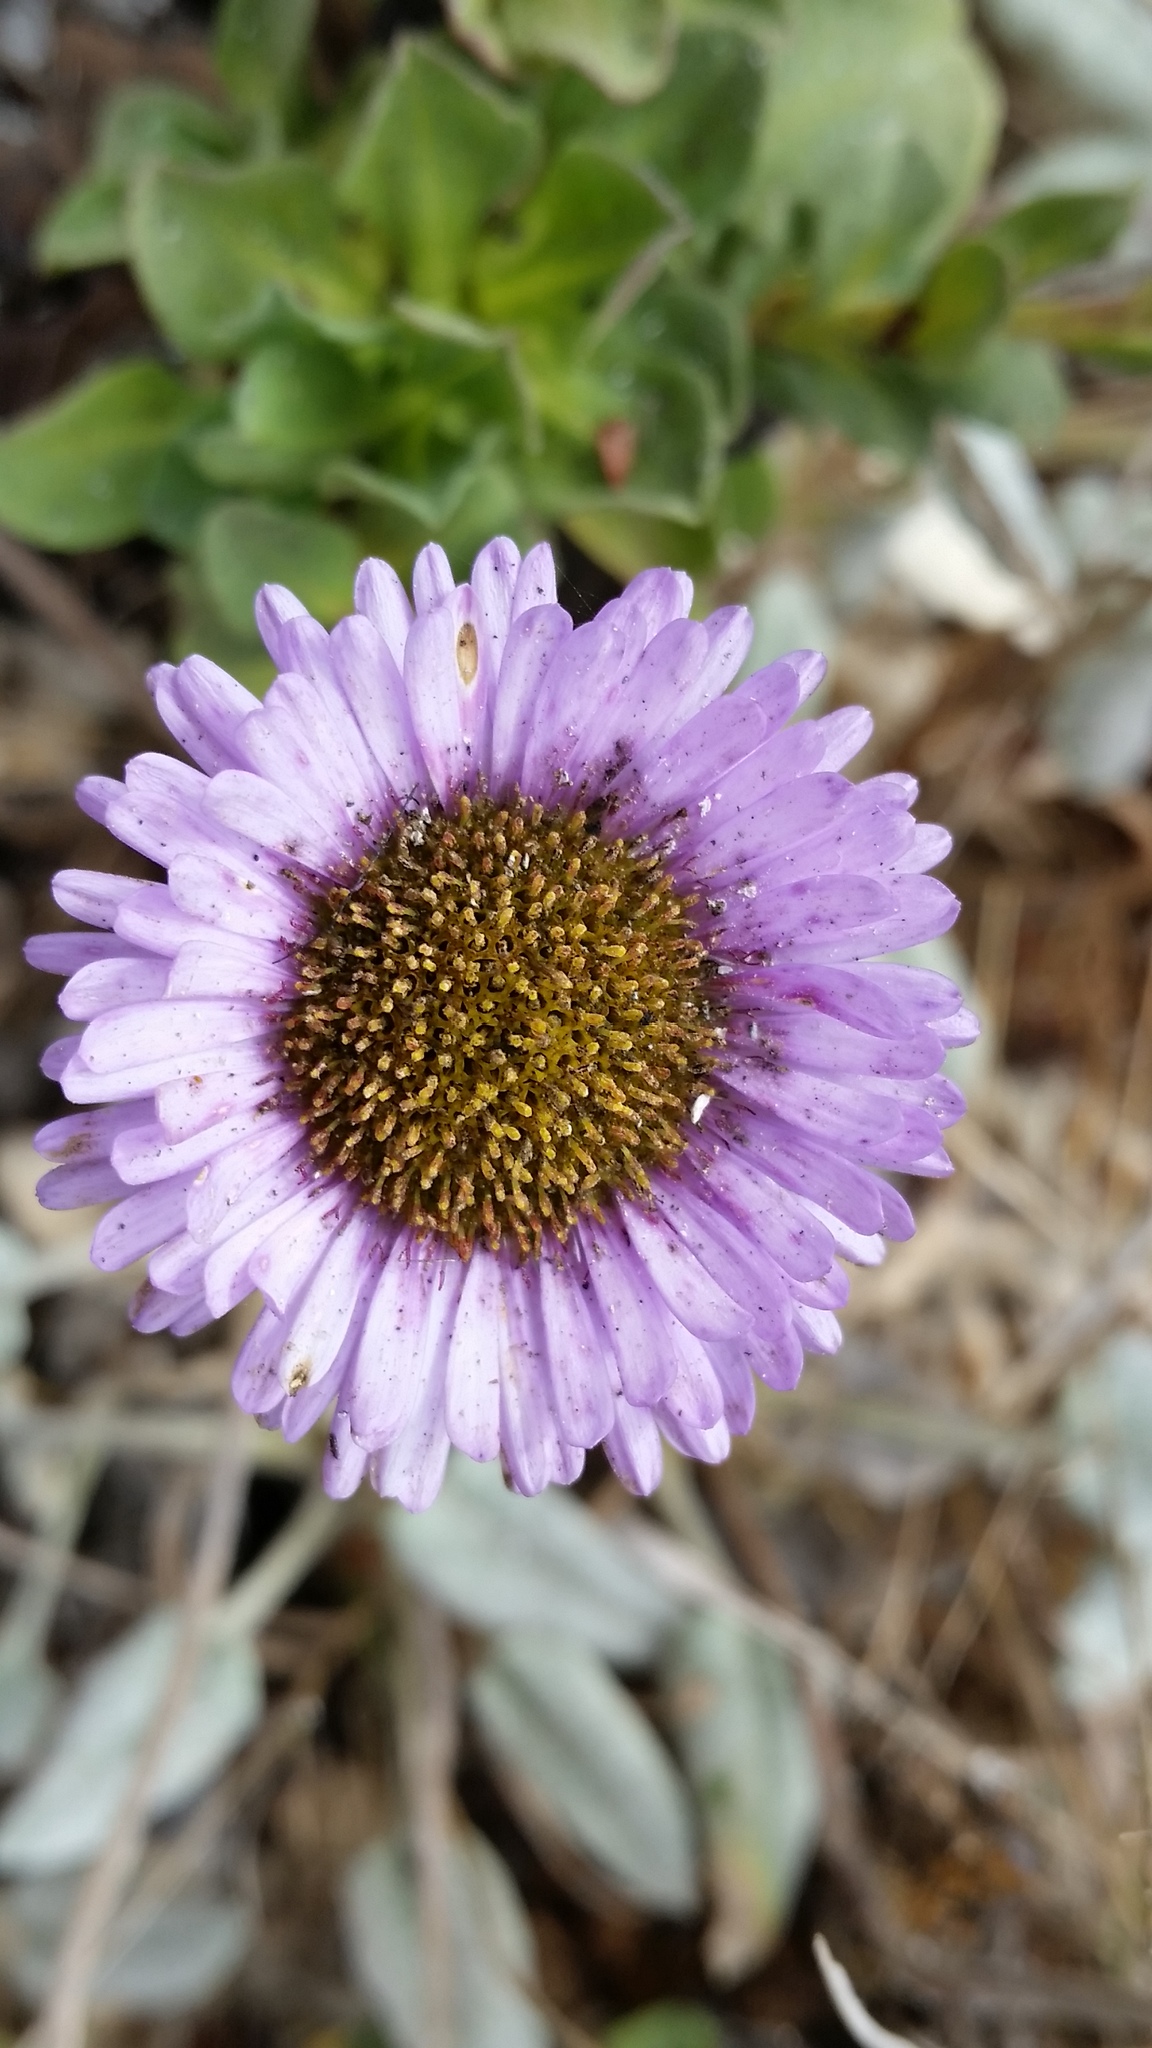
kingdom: Plantae
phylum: Tracheophyta
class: Magnoliopsida
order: Asterales
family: Asteraceae
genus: Erigeron
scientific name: Erigeron glaucus
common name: Seaside daisy
